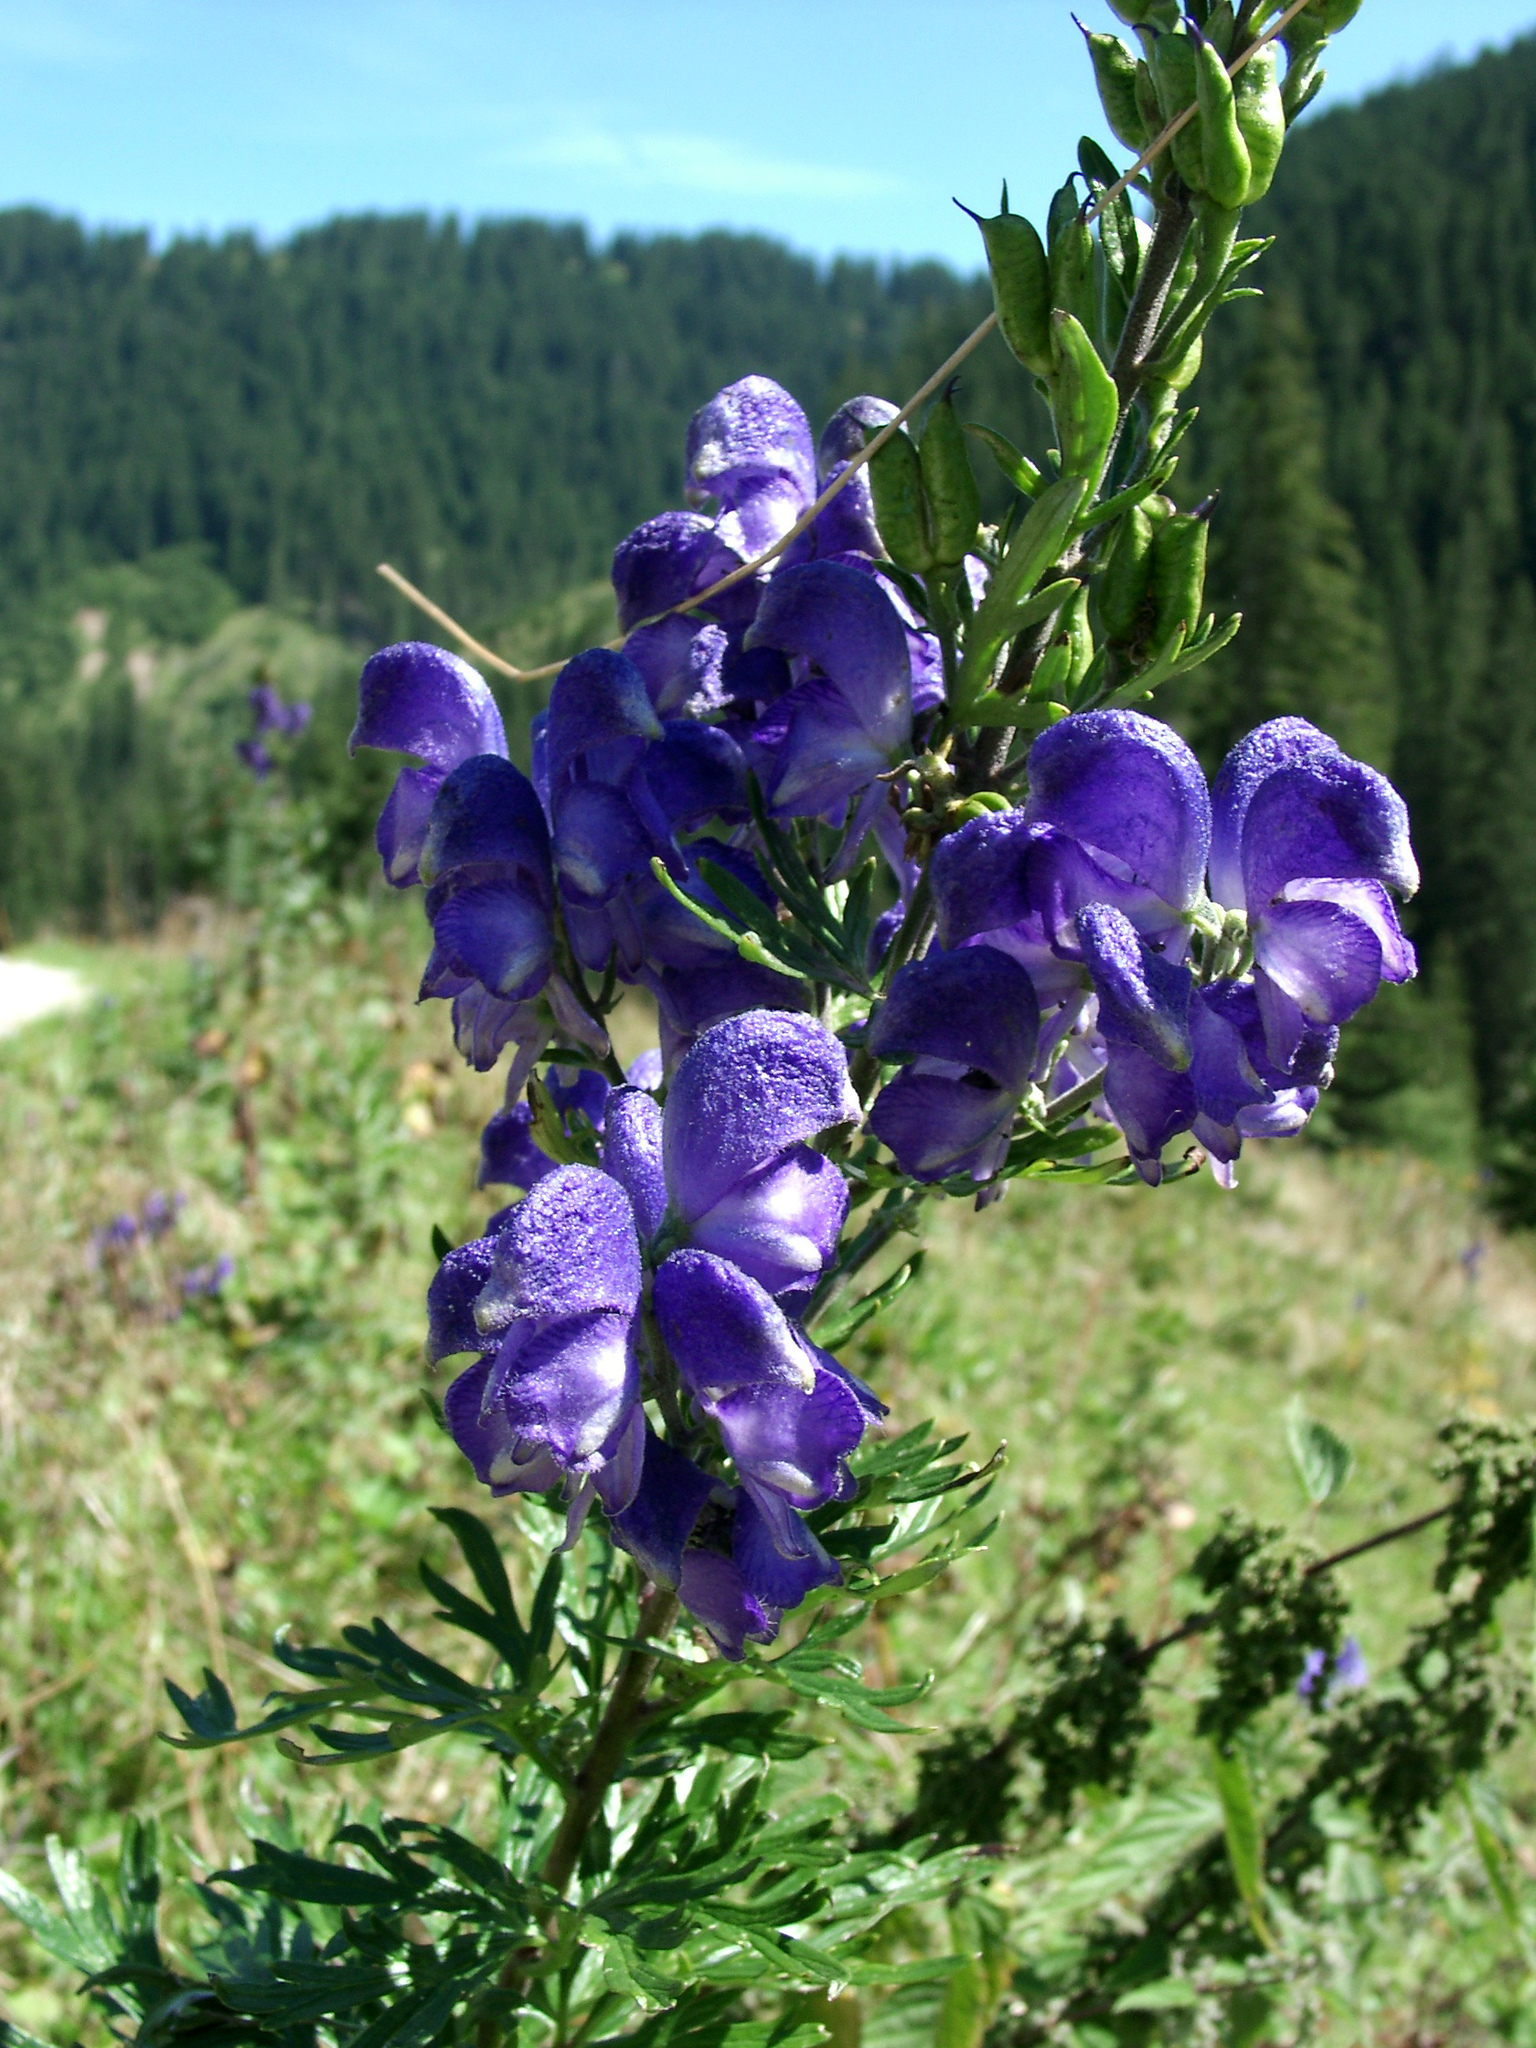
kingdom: Plantae
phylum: Tracheophyta
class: Magnoliopsida
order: Ranunculales
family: Ranunculaceae
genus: Aconitum
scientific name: Aconitum napellus
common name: Garden monkshood
